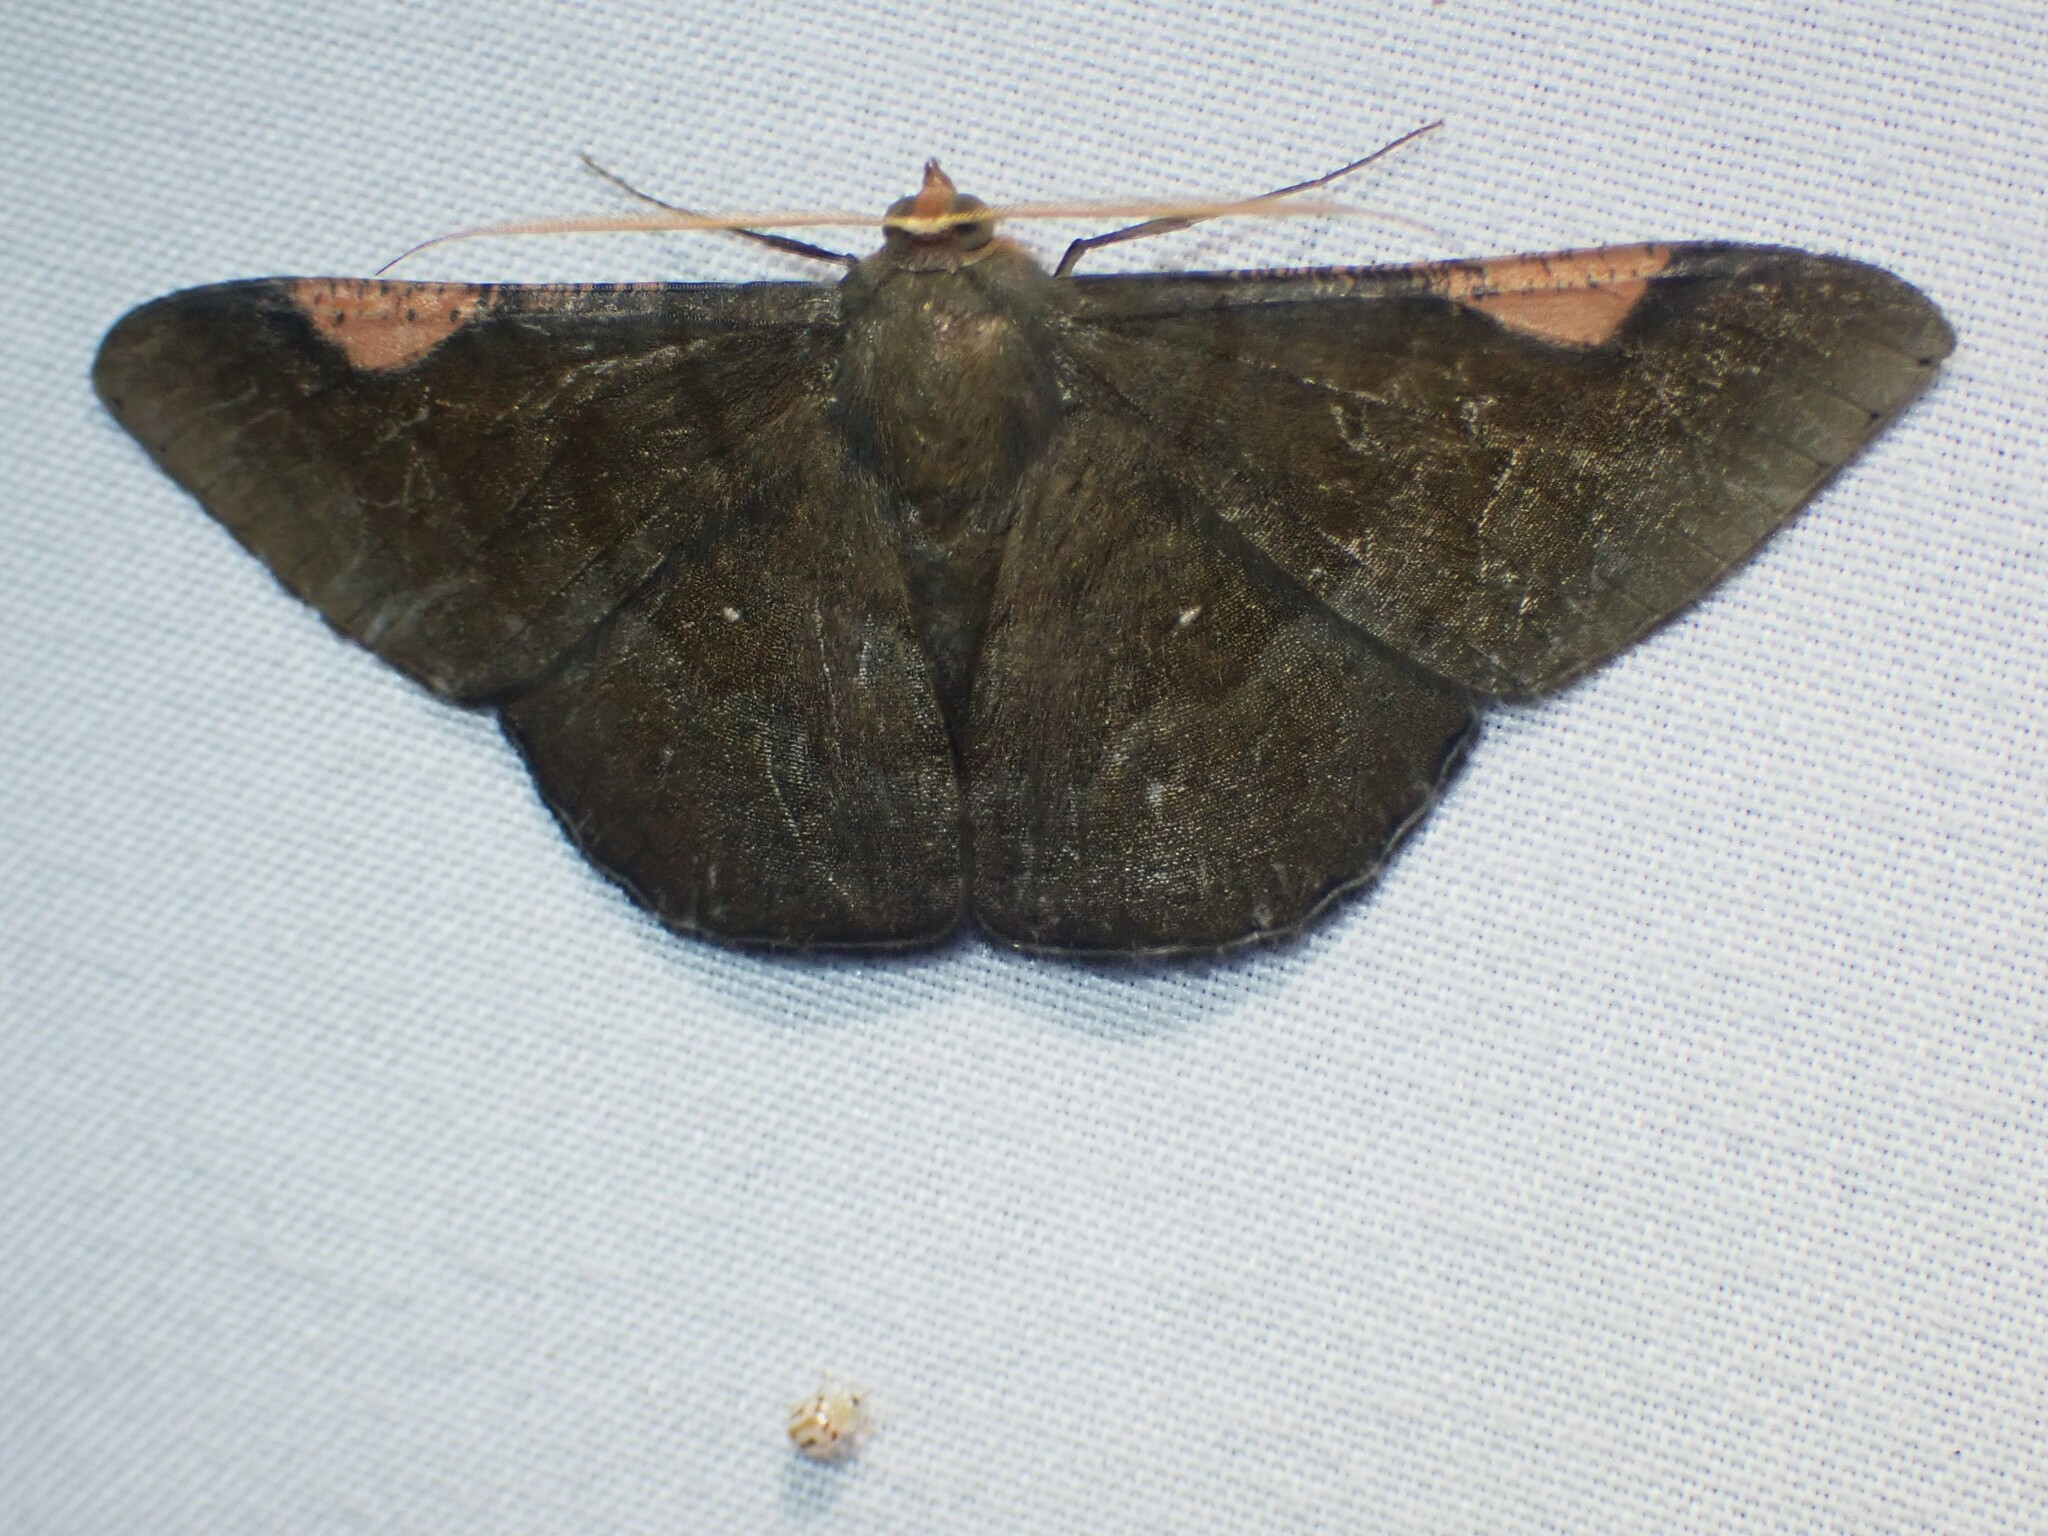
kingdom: Animalia
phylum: Arthropoda
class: Insecta
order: Lepidoptera
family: Geometridae
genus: Sphacelodes
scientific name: Sphacelodes vulneraria
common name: Looper moth
